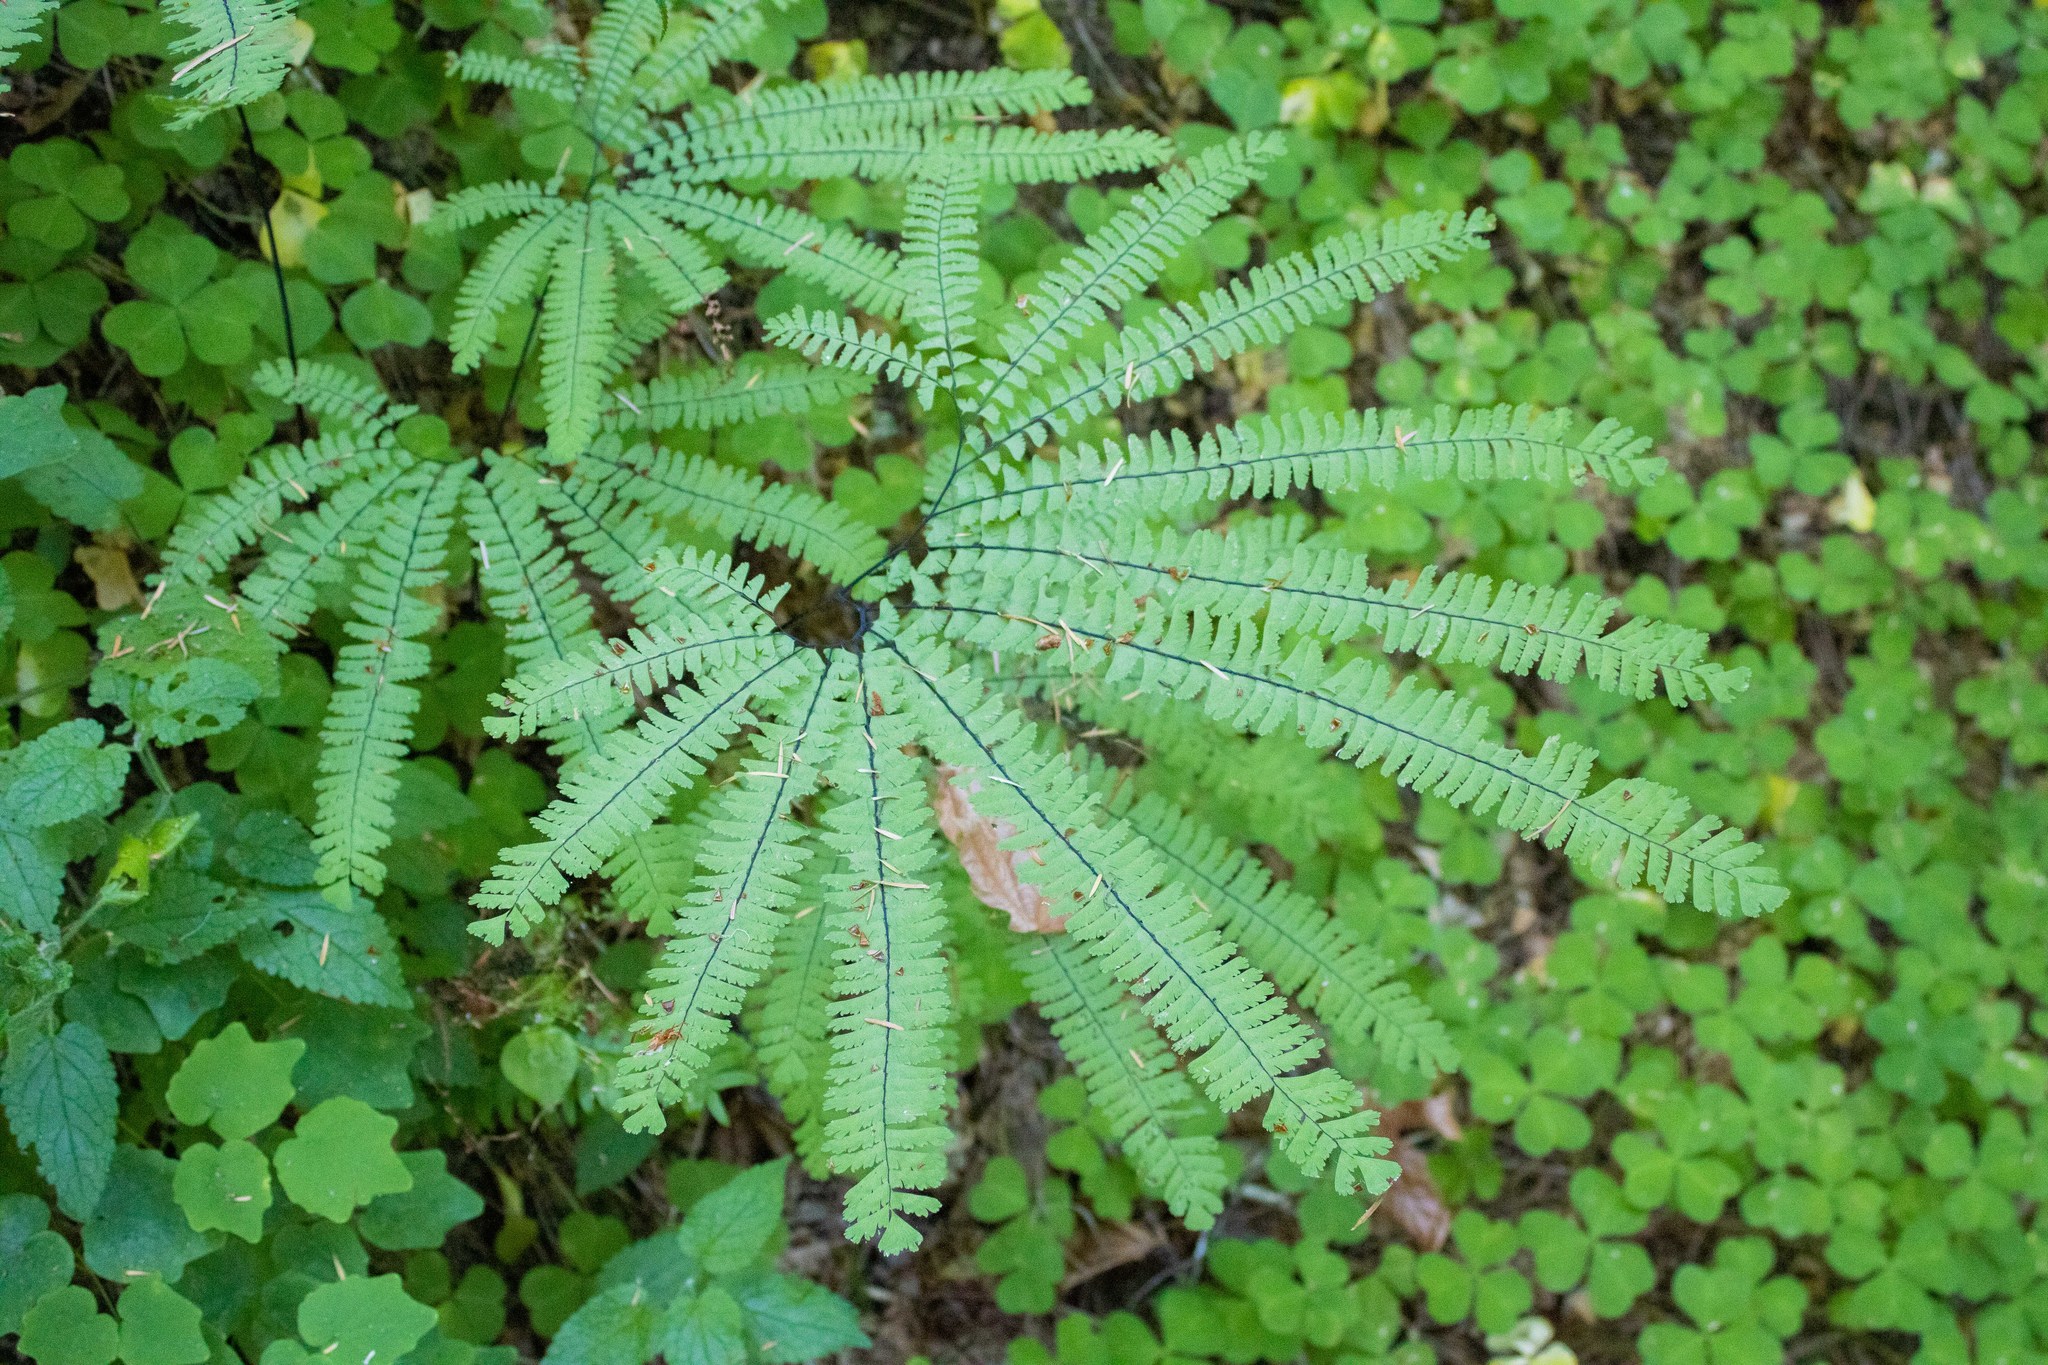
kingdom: Plantae
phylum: Tracheophyta
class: Polypodiopsida
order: Polypodiales
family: Pteridaceae
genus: Adiantum
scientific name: Adiantum aleuticum
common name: Aleutian maidenhair fern
